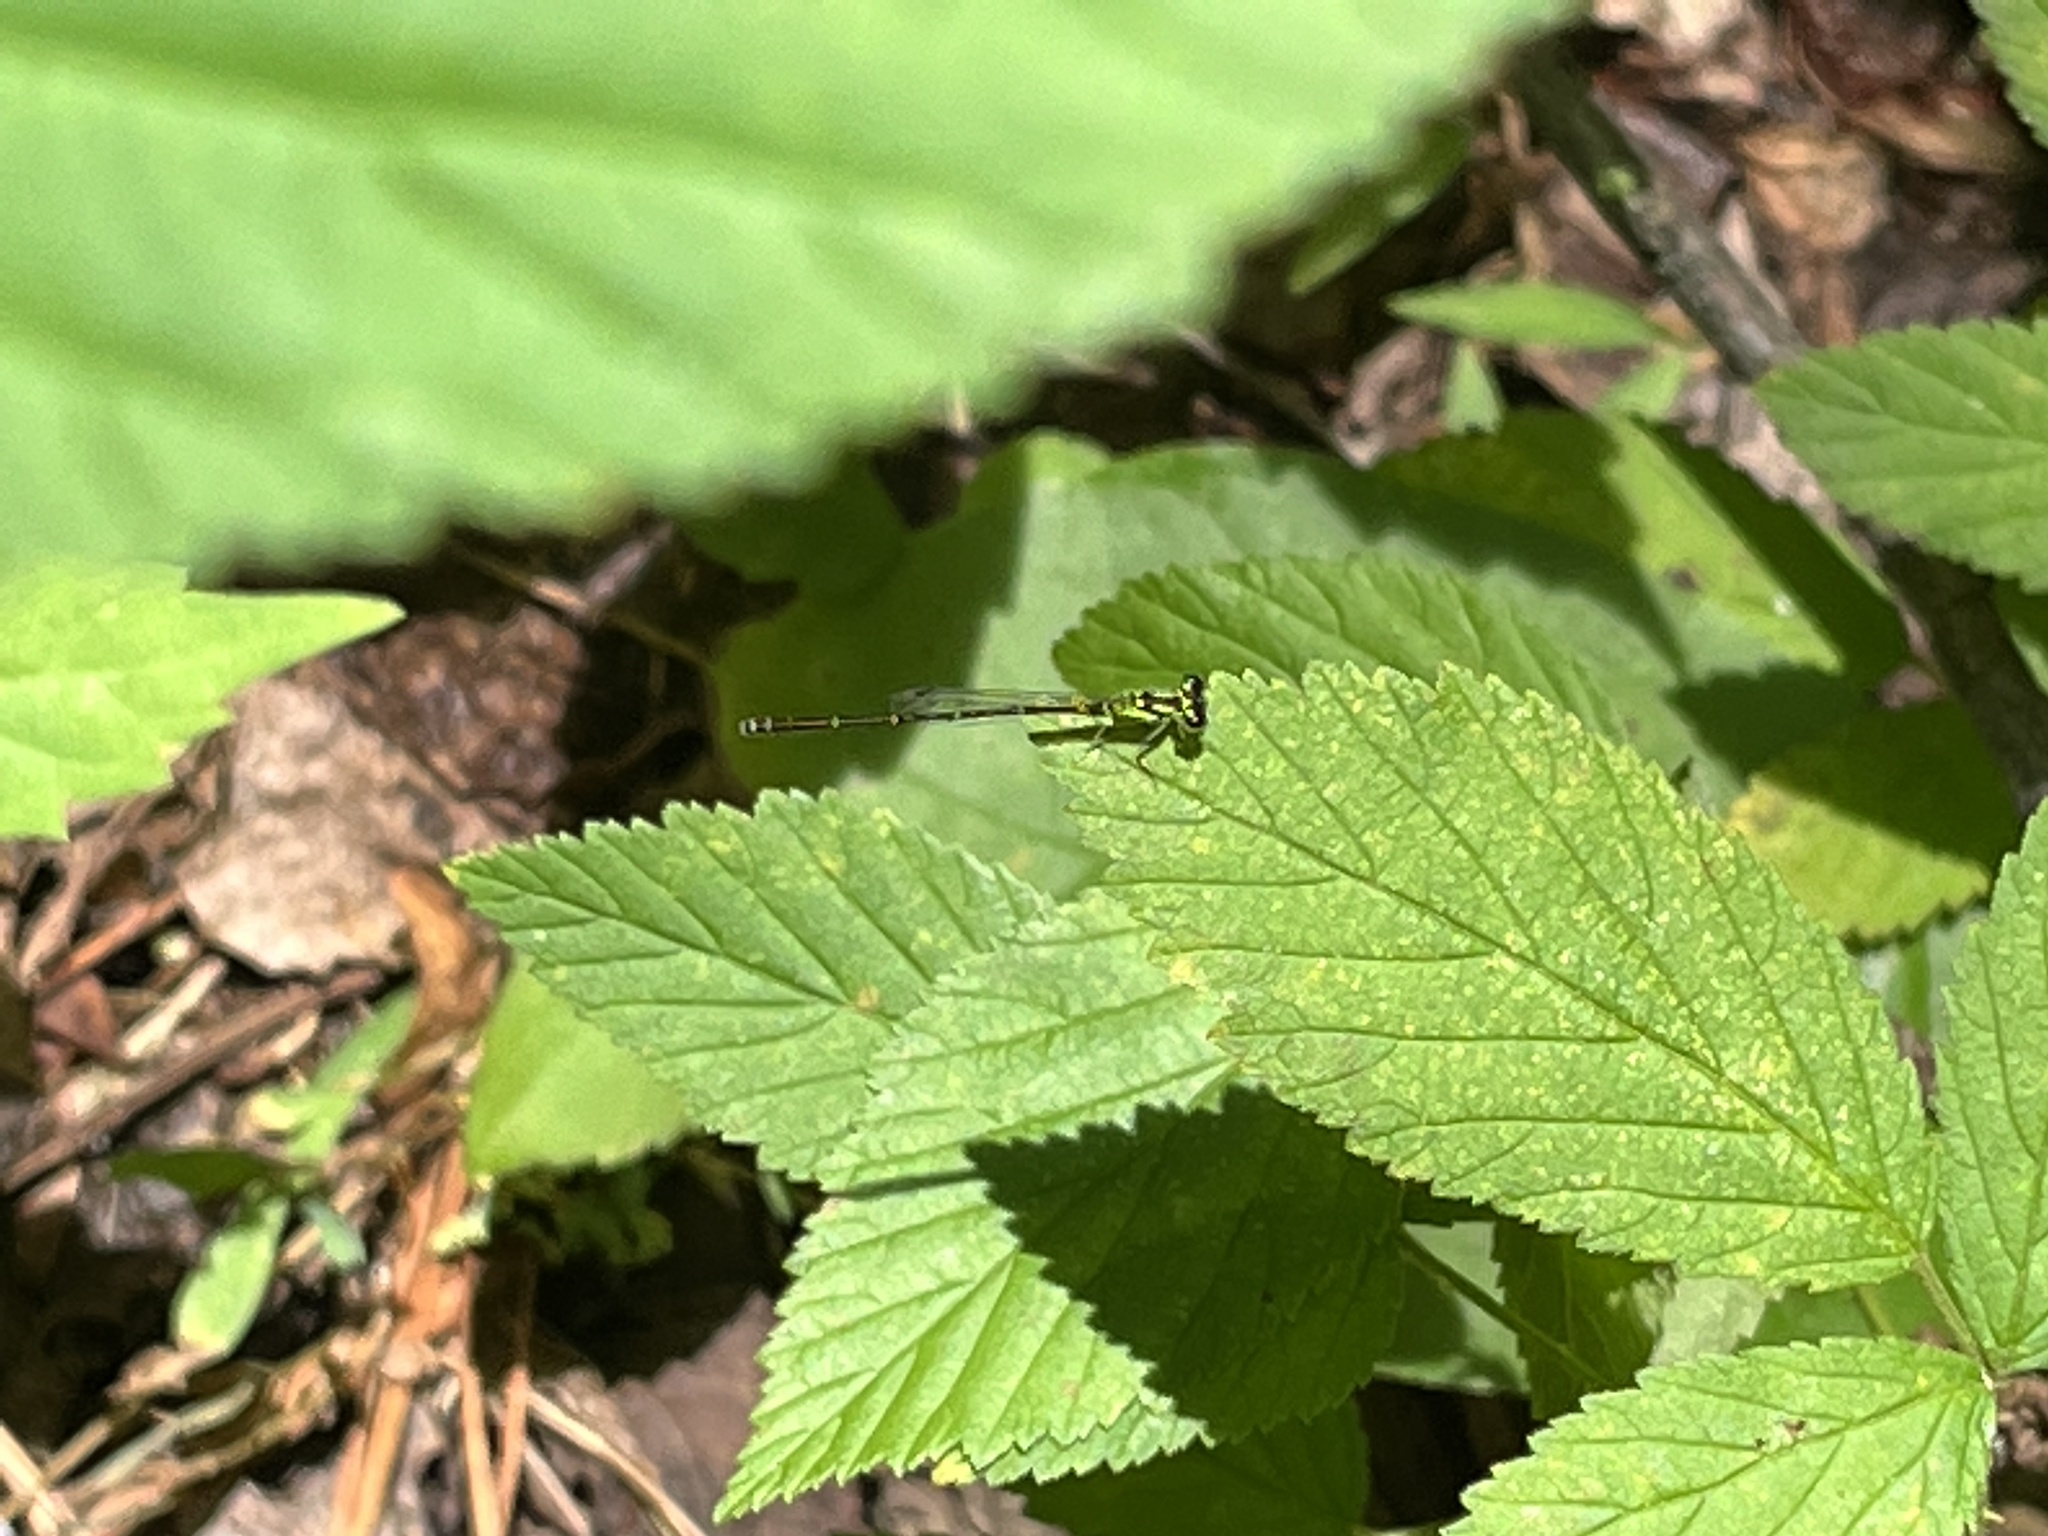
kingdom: Animalia
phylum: Arthropoda
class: Insecta
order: Odonata
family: Coenagrionidae
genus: Ischnura
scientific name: Ischnura posita
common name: Fragile forktail
